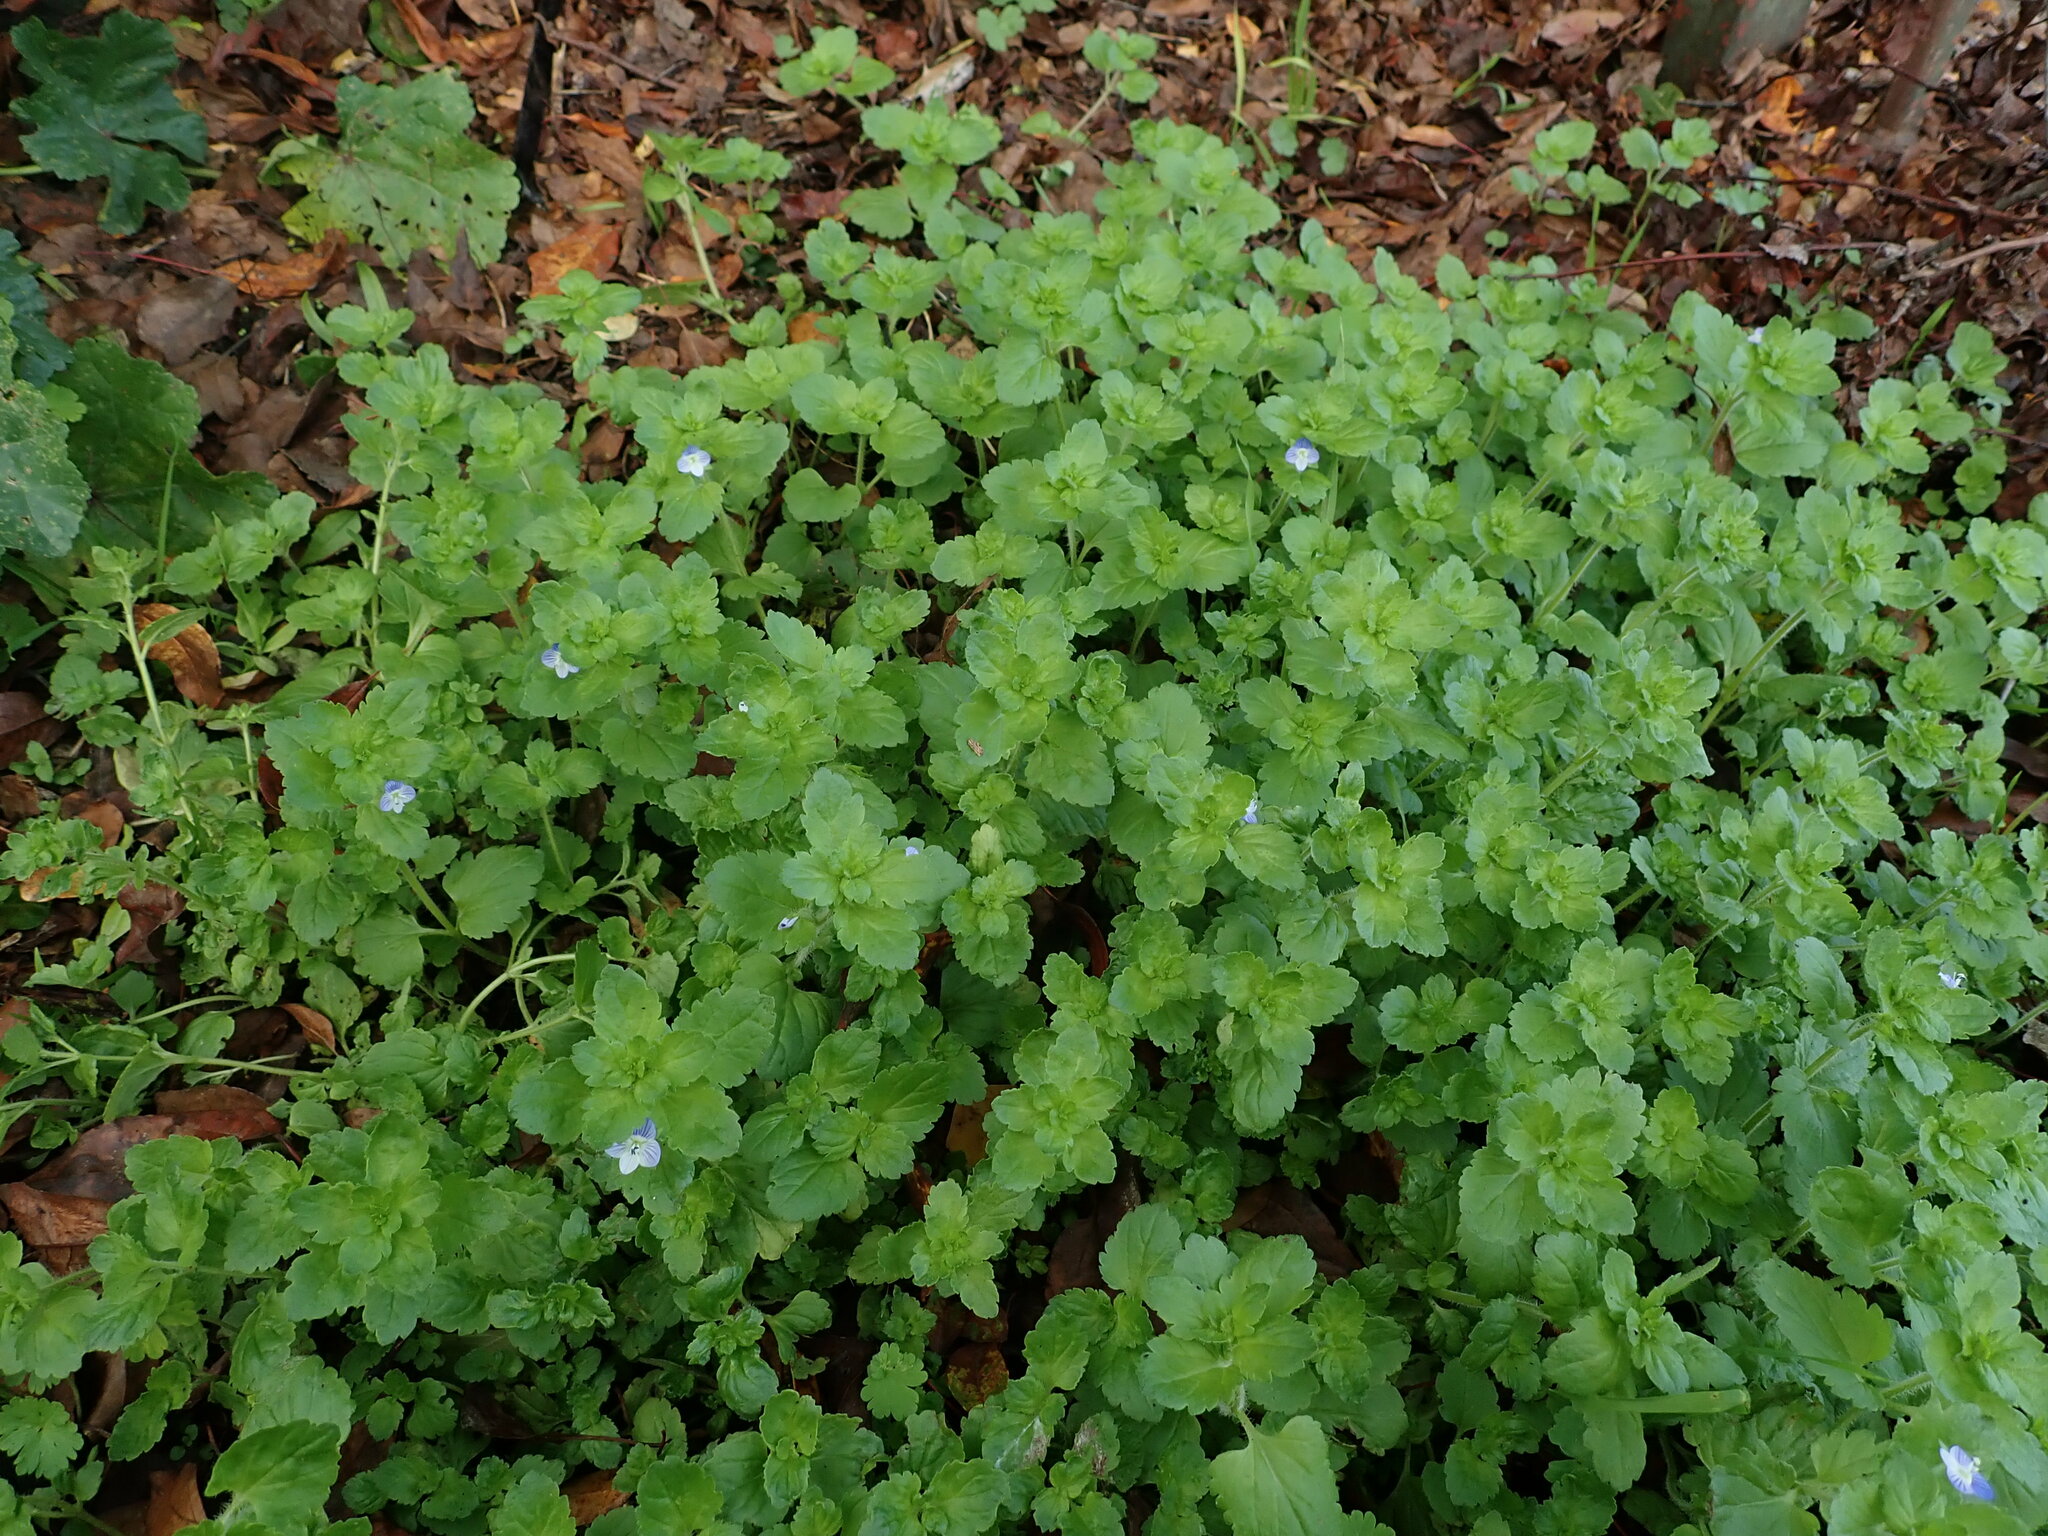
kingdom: Plantae
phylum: Tracheophyta
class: Magnoliopsida
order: Lamiales
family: Plantaginaceae
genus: Veronica
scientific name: Veronica persica
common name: Common field-speedwell
